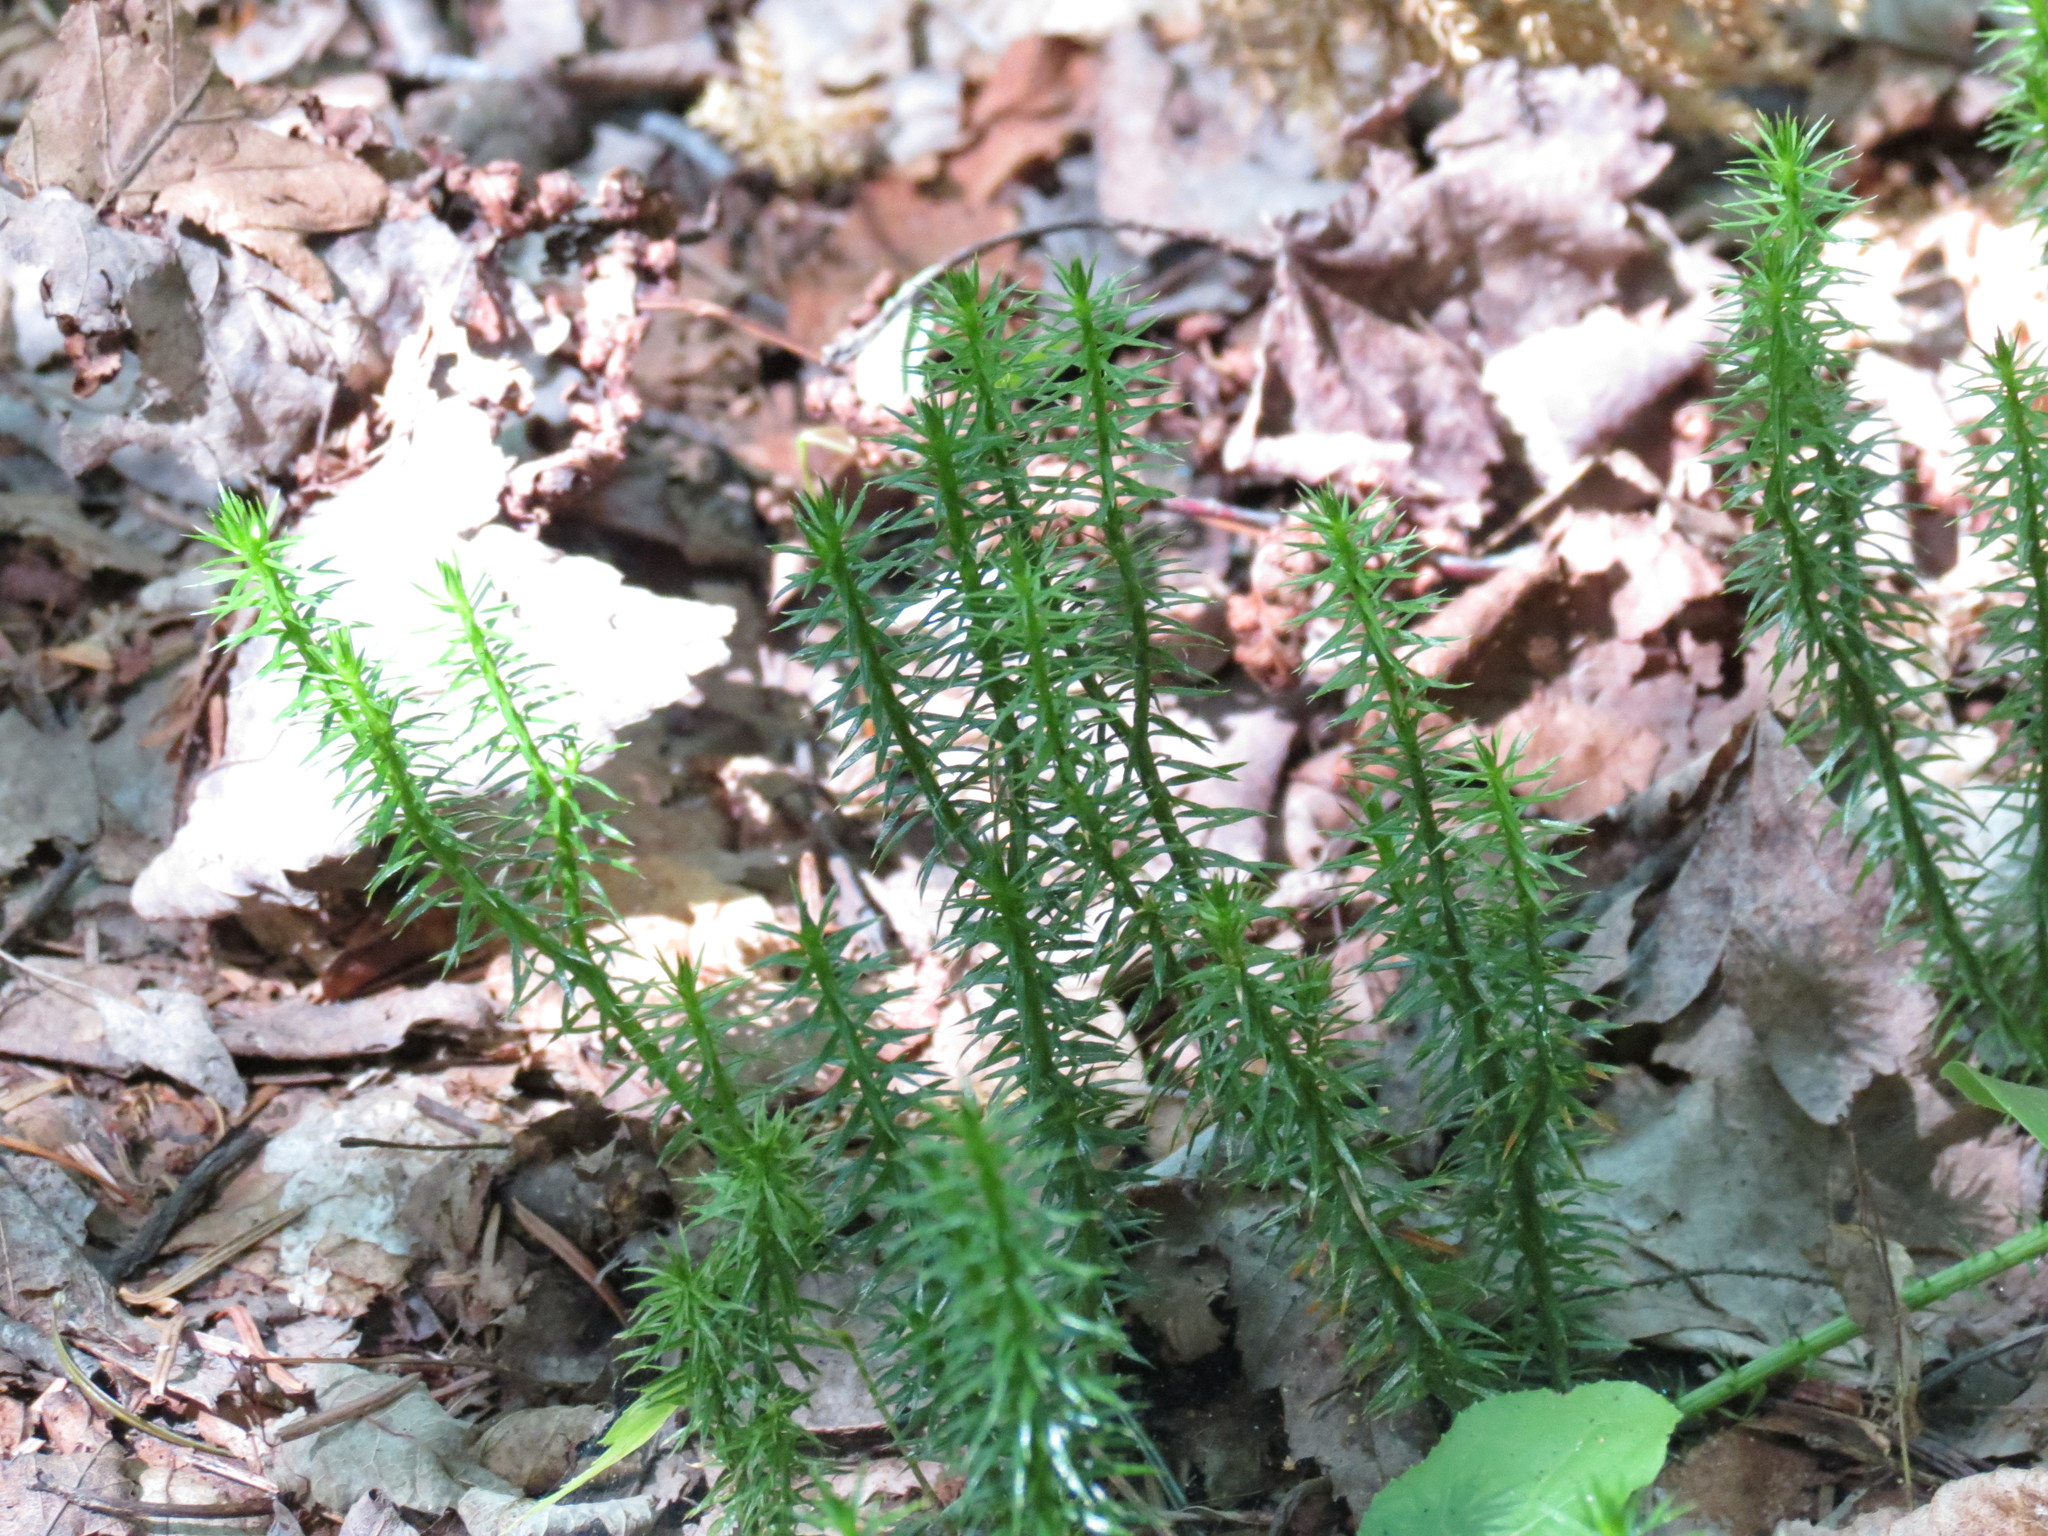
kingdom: Plantae
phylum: Tracheophyta
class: Lycopodiopsida
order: Lycopodiales
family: Lycopodiaceae
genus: Spinulum
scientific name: Spinulum annotinum
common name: Interrupted club-moss
